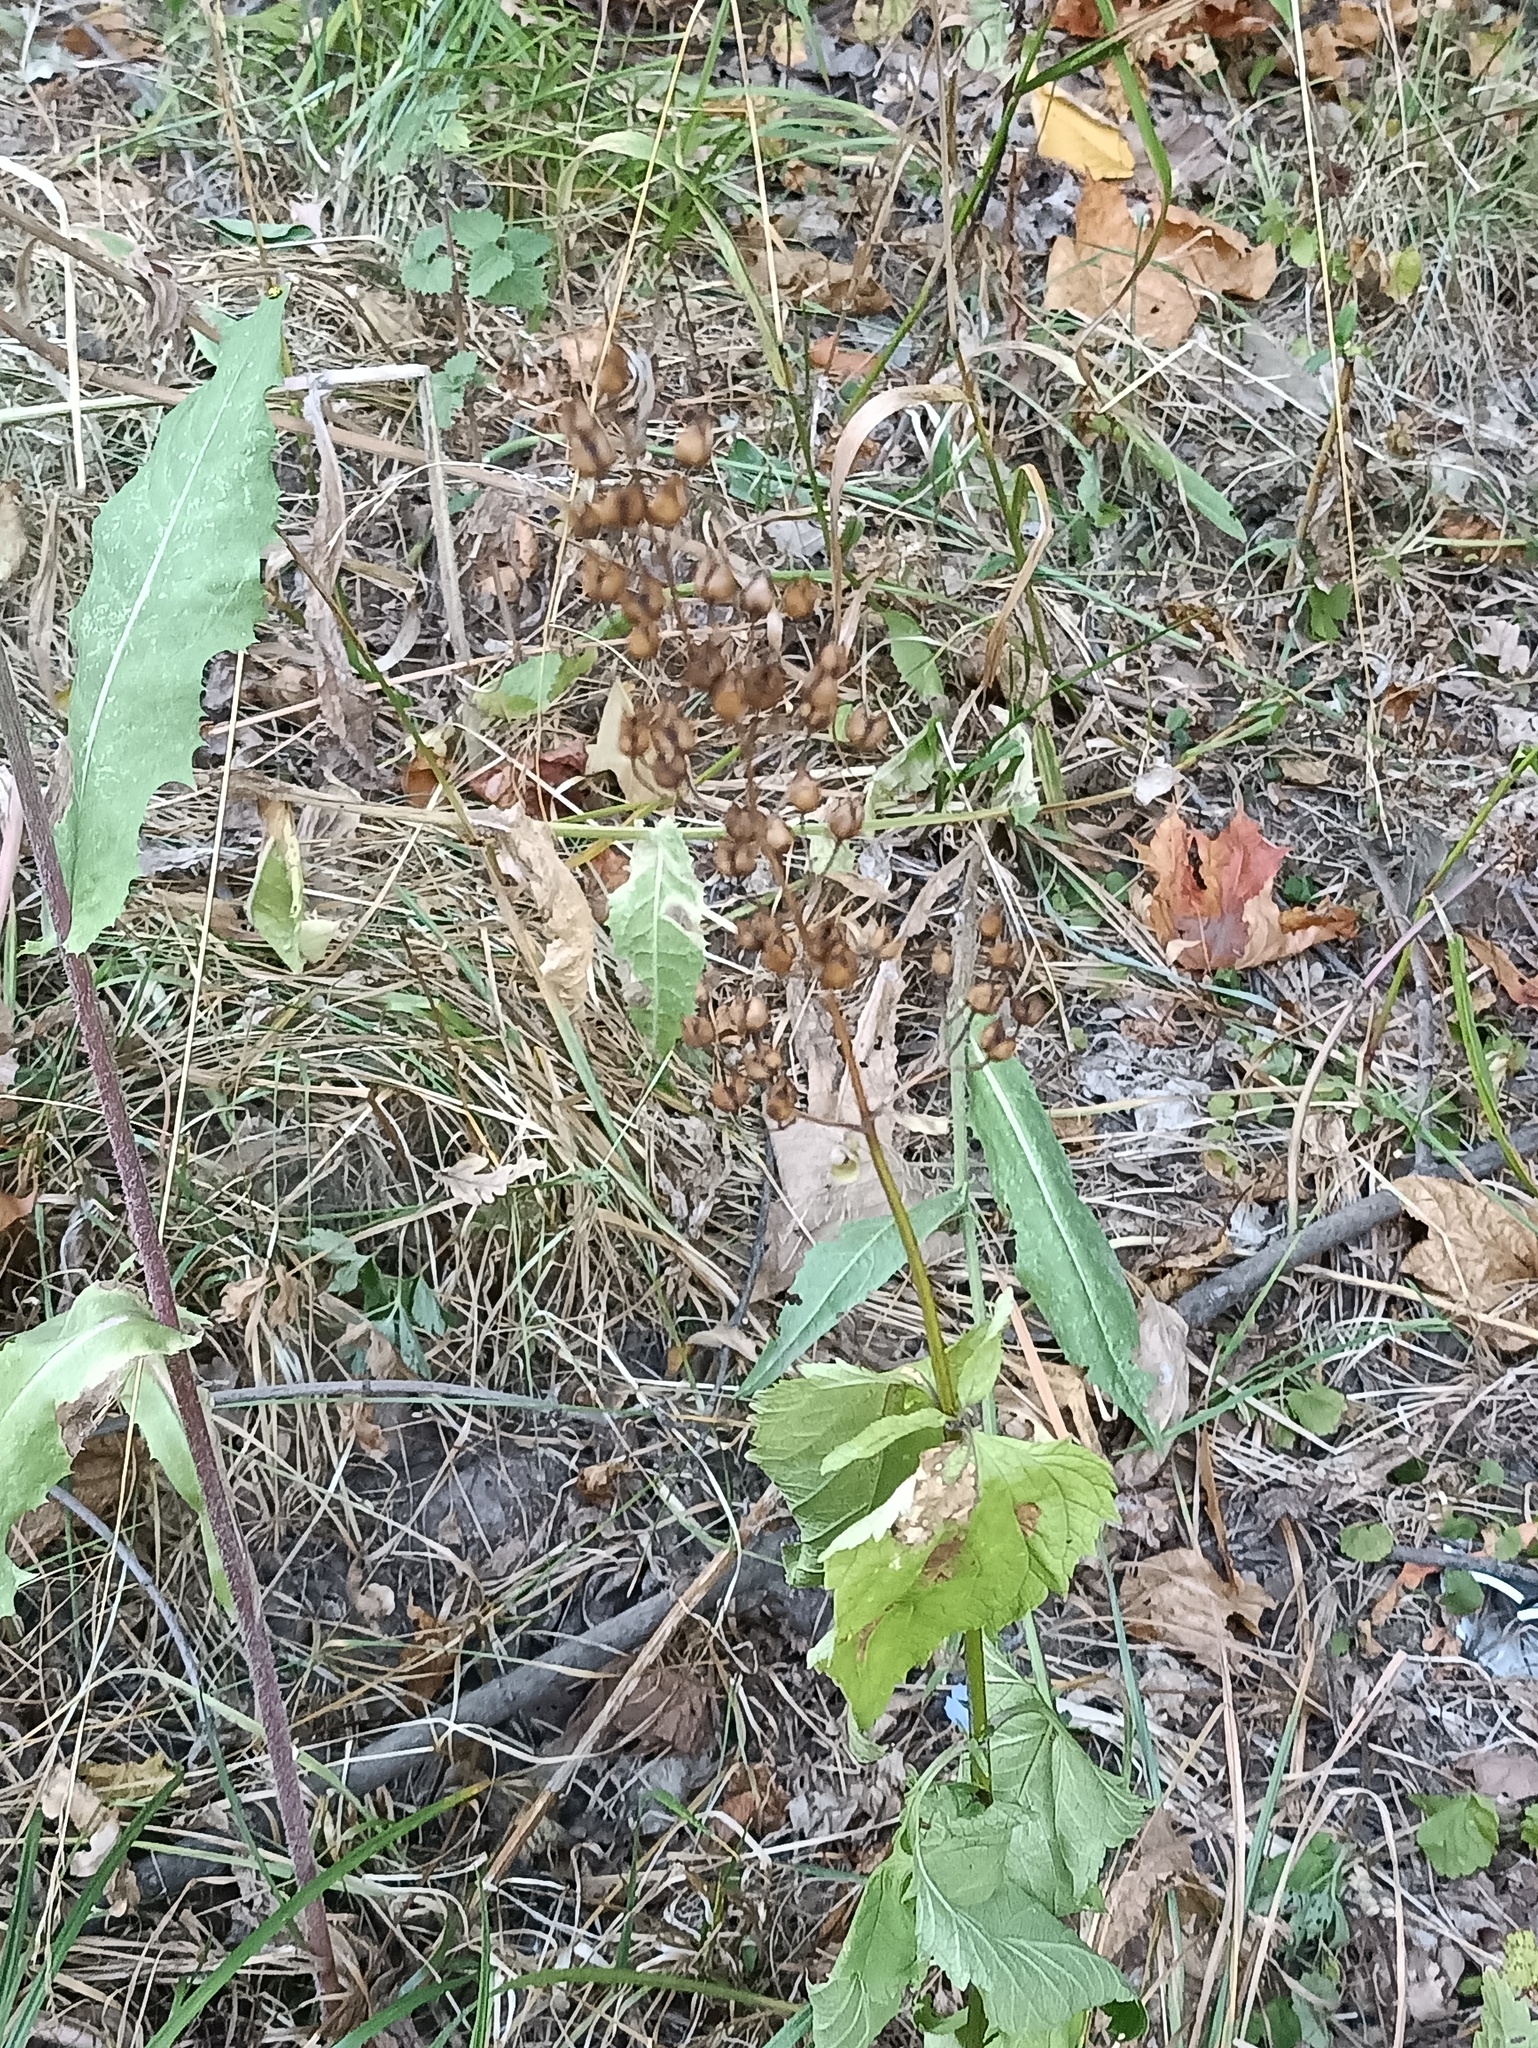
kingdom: Plantae
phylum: Tracheophyta
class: Magnoliopsida
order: Lamiales
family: Scrophulariaceae
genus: Scrophularia
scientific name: Scrophularia nodosa
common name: Common figwort
